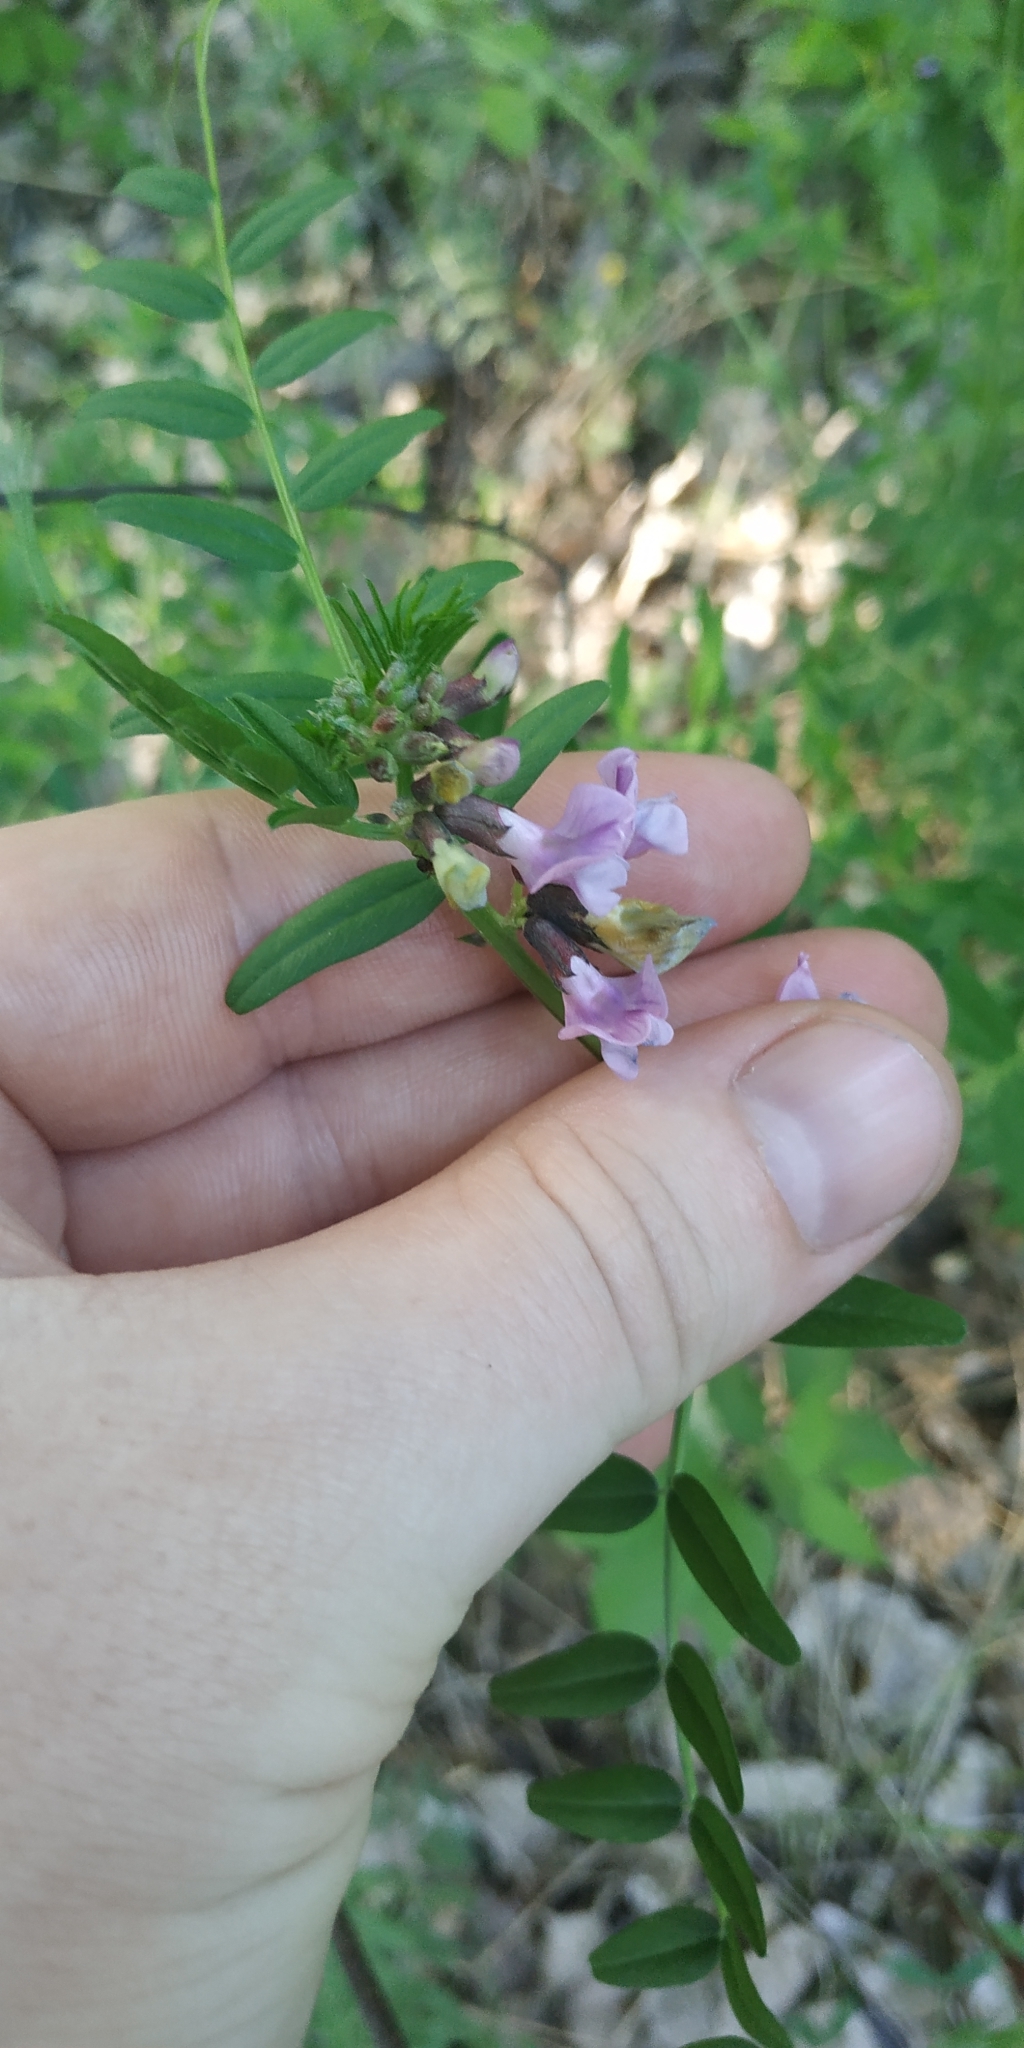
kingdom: Plantae
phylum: Tracheophyta
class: Magnoliopsida
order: Fabales
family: Fabaceae
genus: Vicia
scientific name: Vicia sepium
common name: Bush vetch
